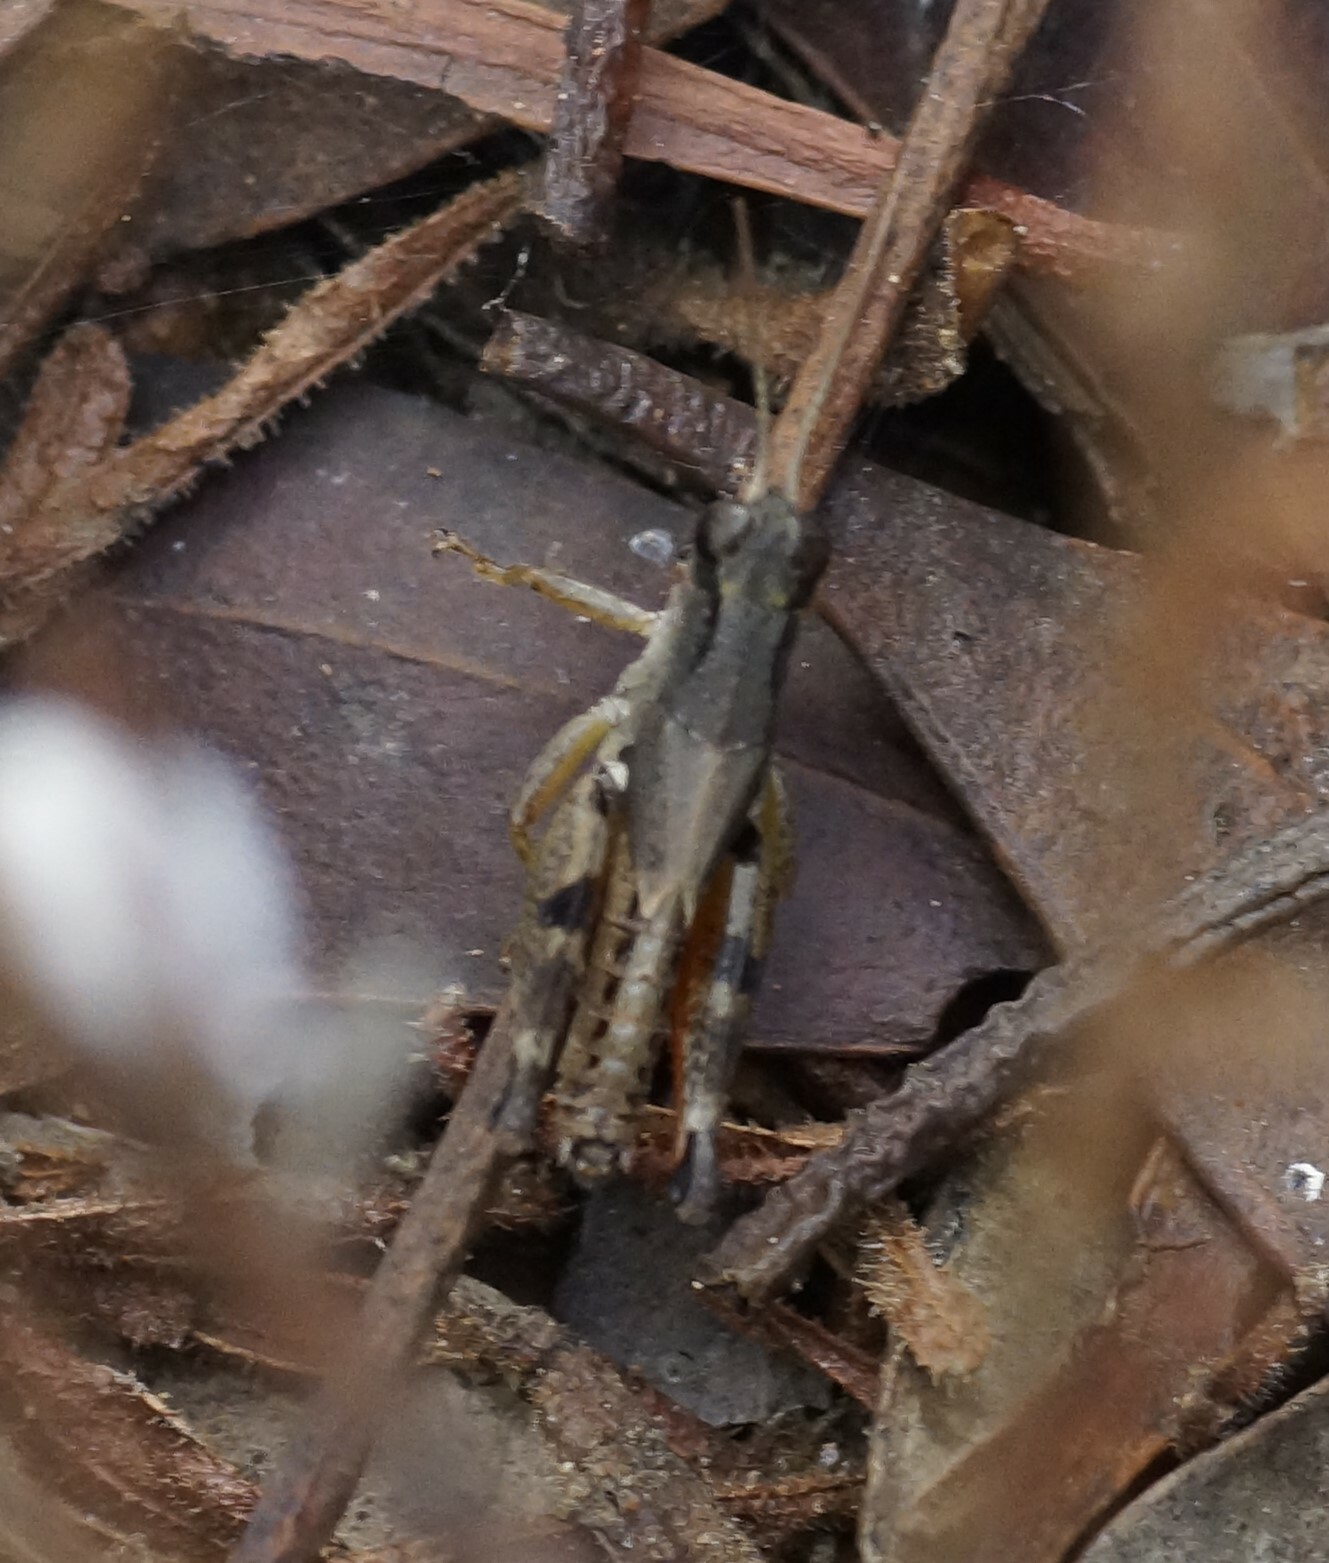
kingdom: Animalia
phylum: Arthropoda
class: Insecta
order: Orthoptera
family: Acrididae
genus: Phaulacridium
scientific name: Phaulacridium vittatum
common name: Wingless grasshopper
